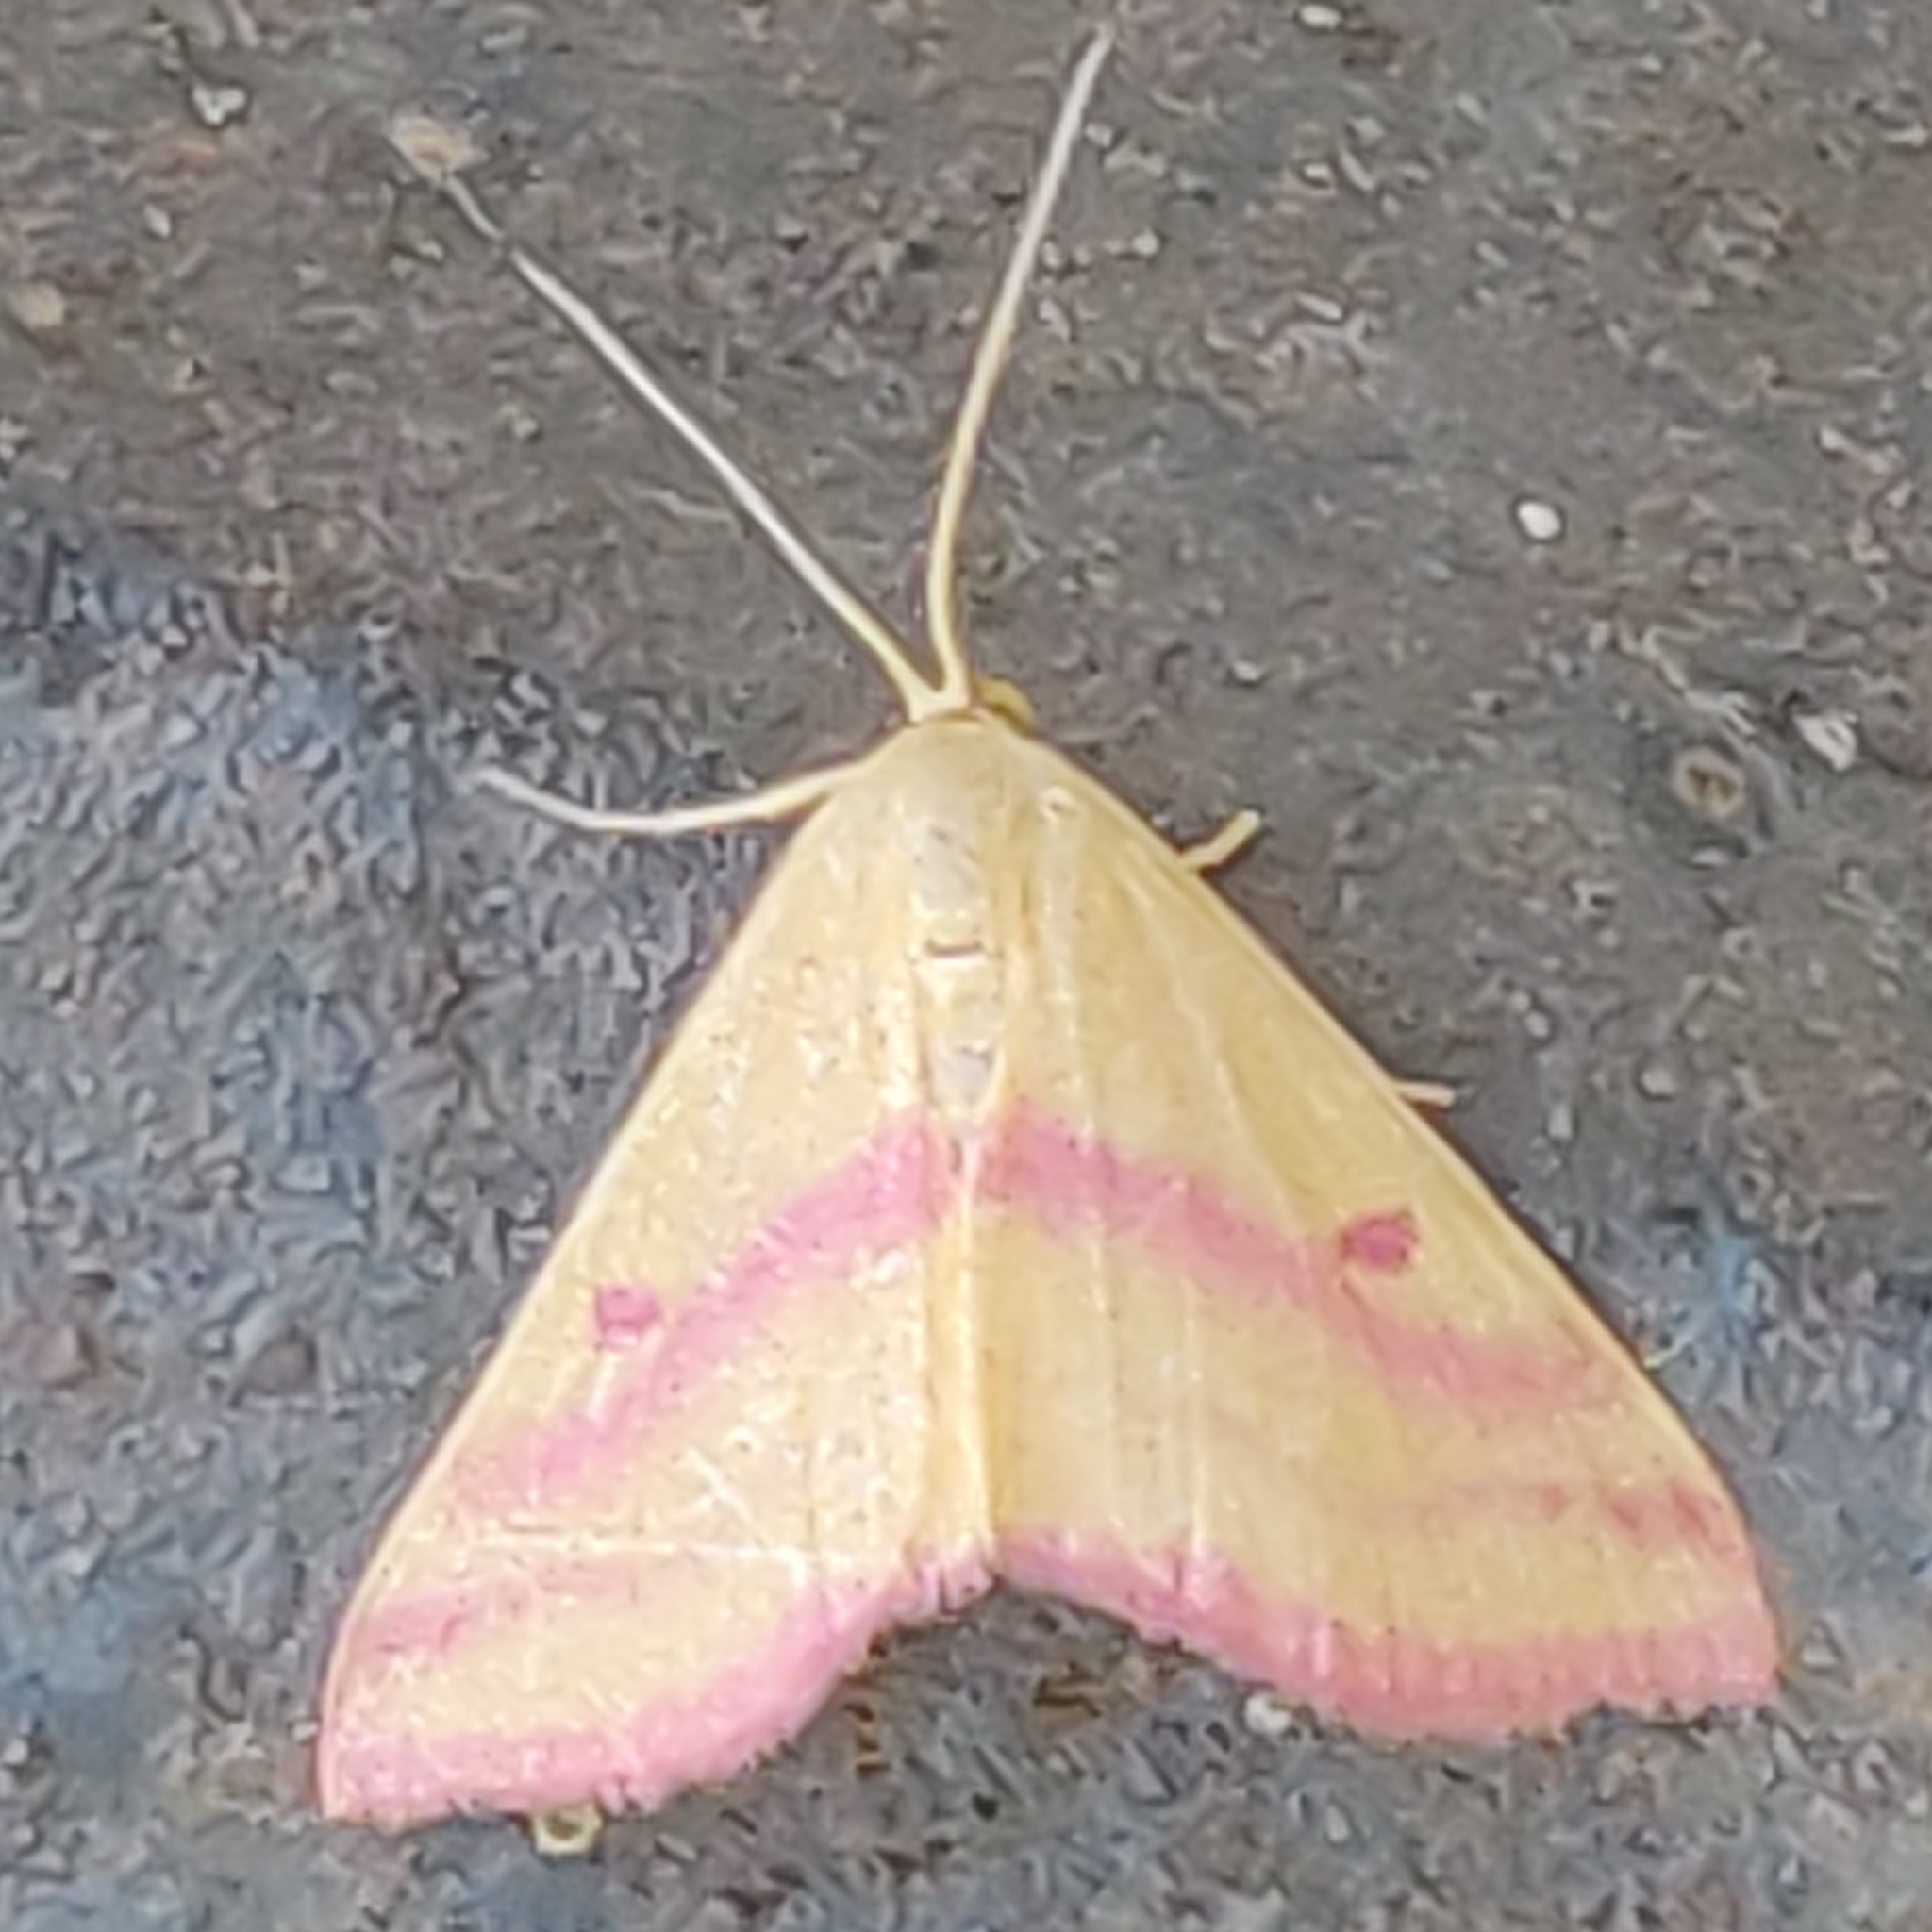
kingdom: Animalia
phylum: Arthropoda
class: Insecta
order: Lepidoptera
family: Geometridae
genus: Haematopis
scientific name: Haematopis grataria
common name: Chickweed geometer
